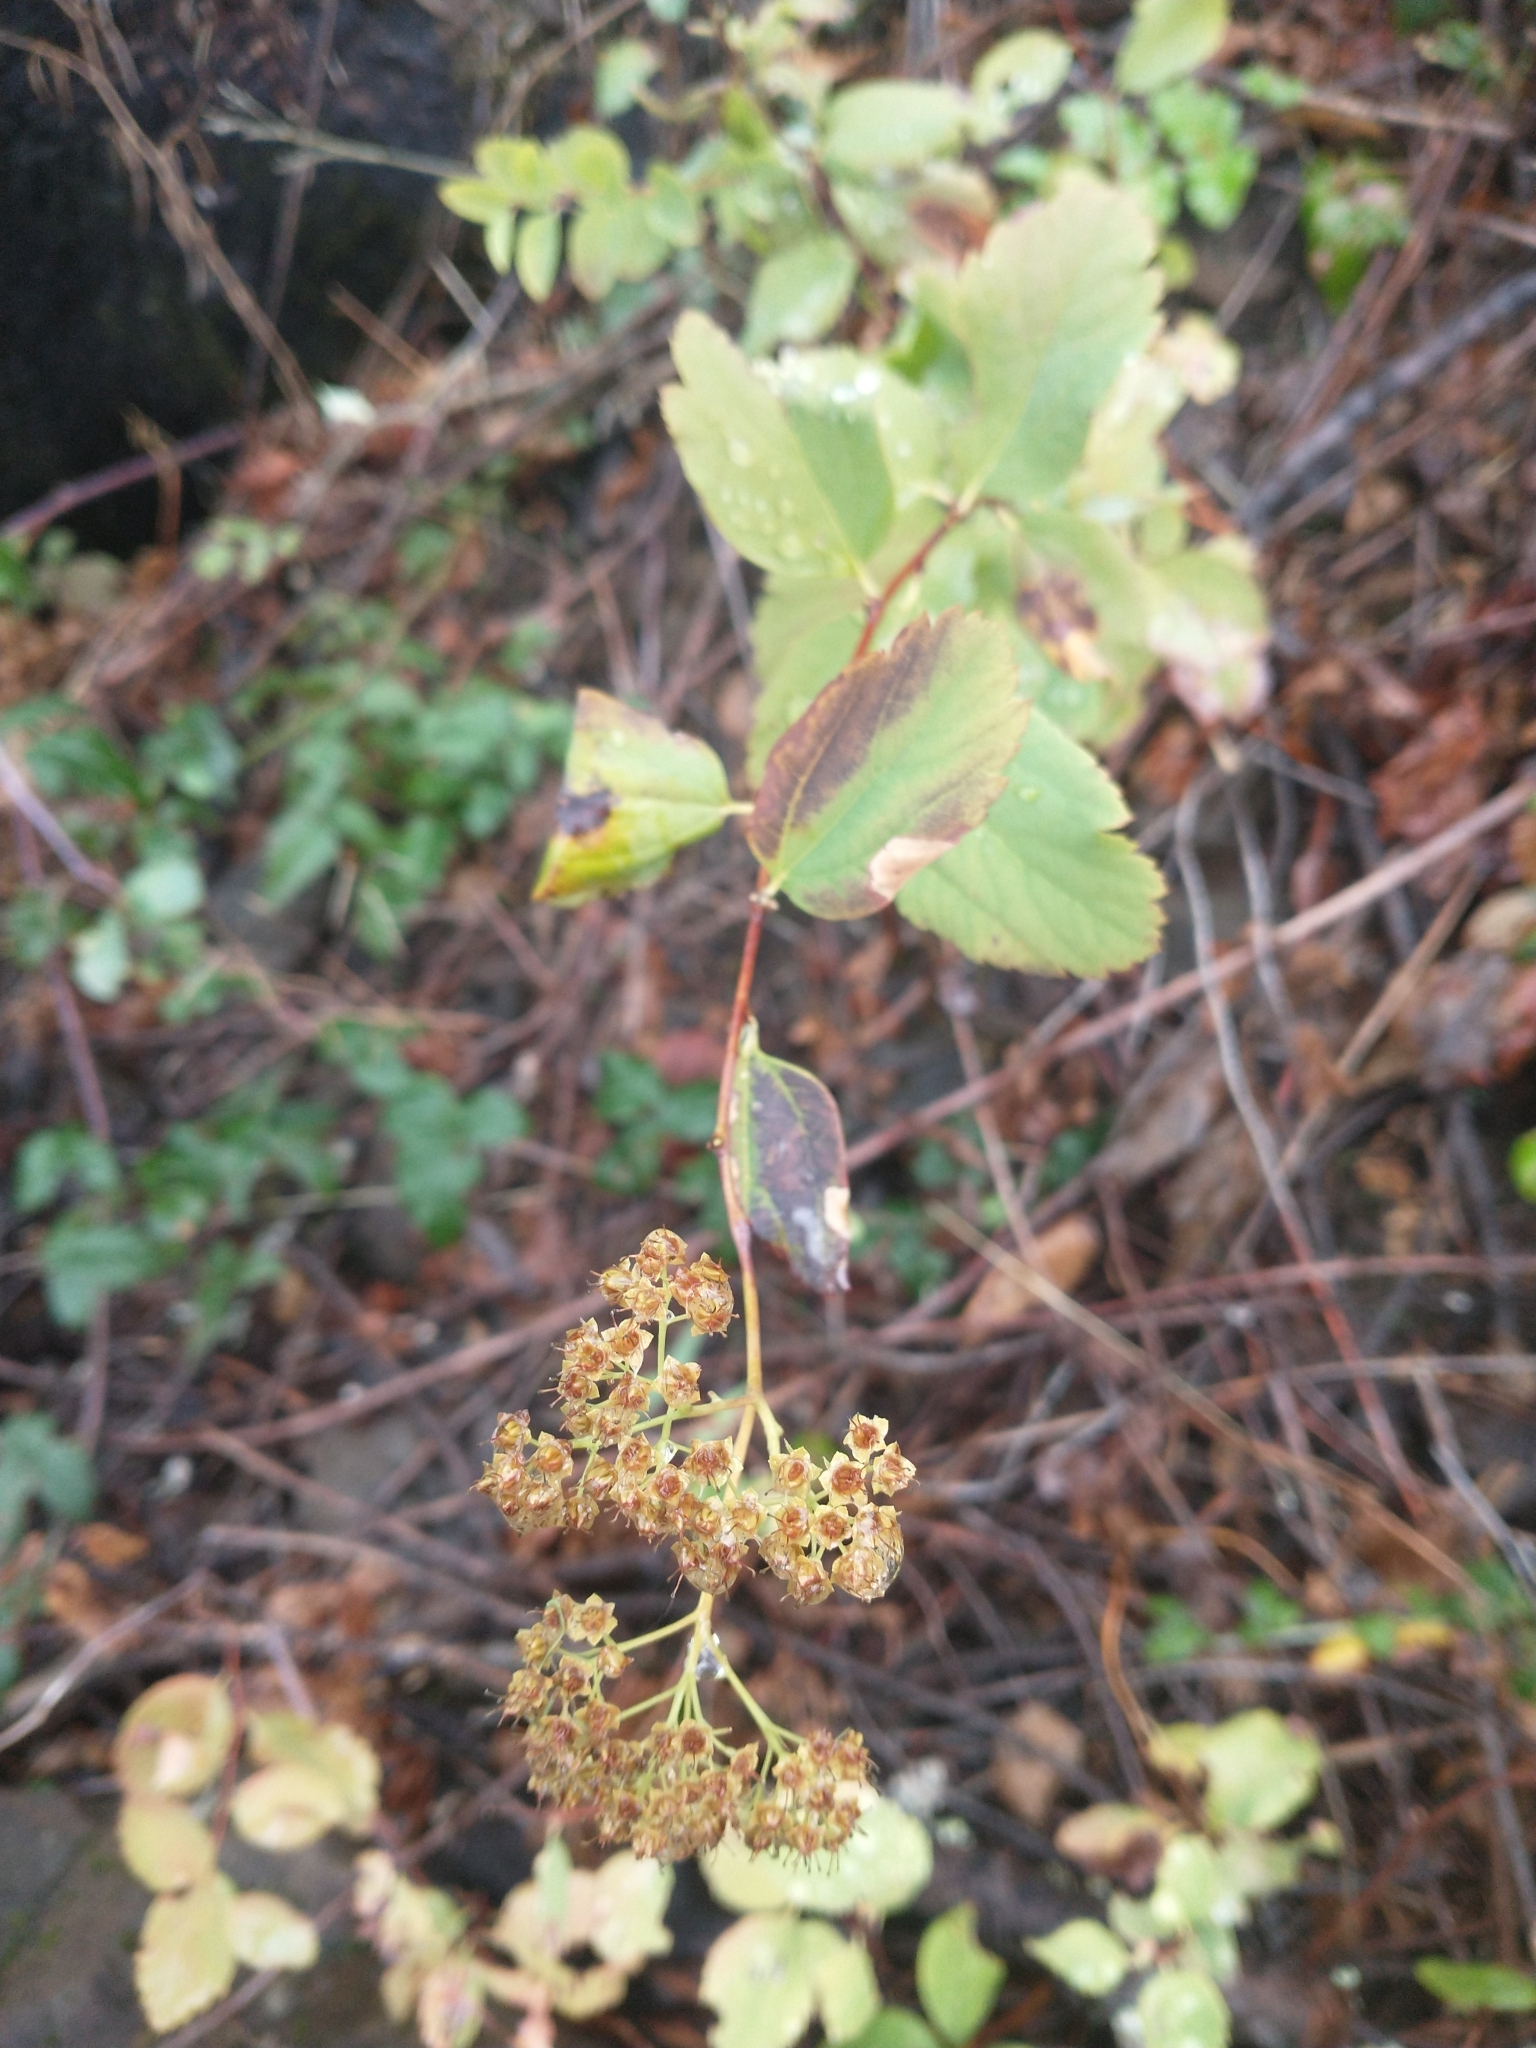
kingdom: Plantae
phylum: Tracheophyta
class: Magnoliopsida
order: Rosales
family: Rosaceae
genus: Spiraea
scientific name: Spiraea lucida
